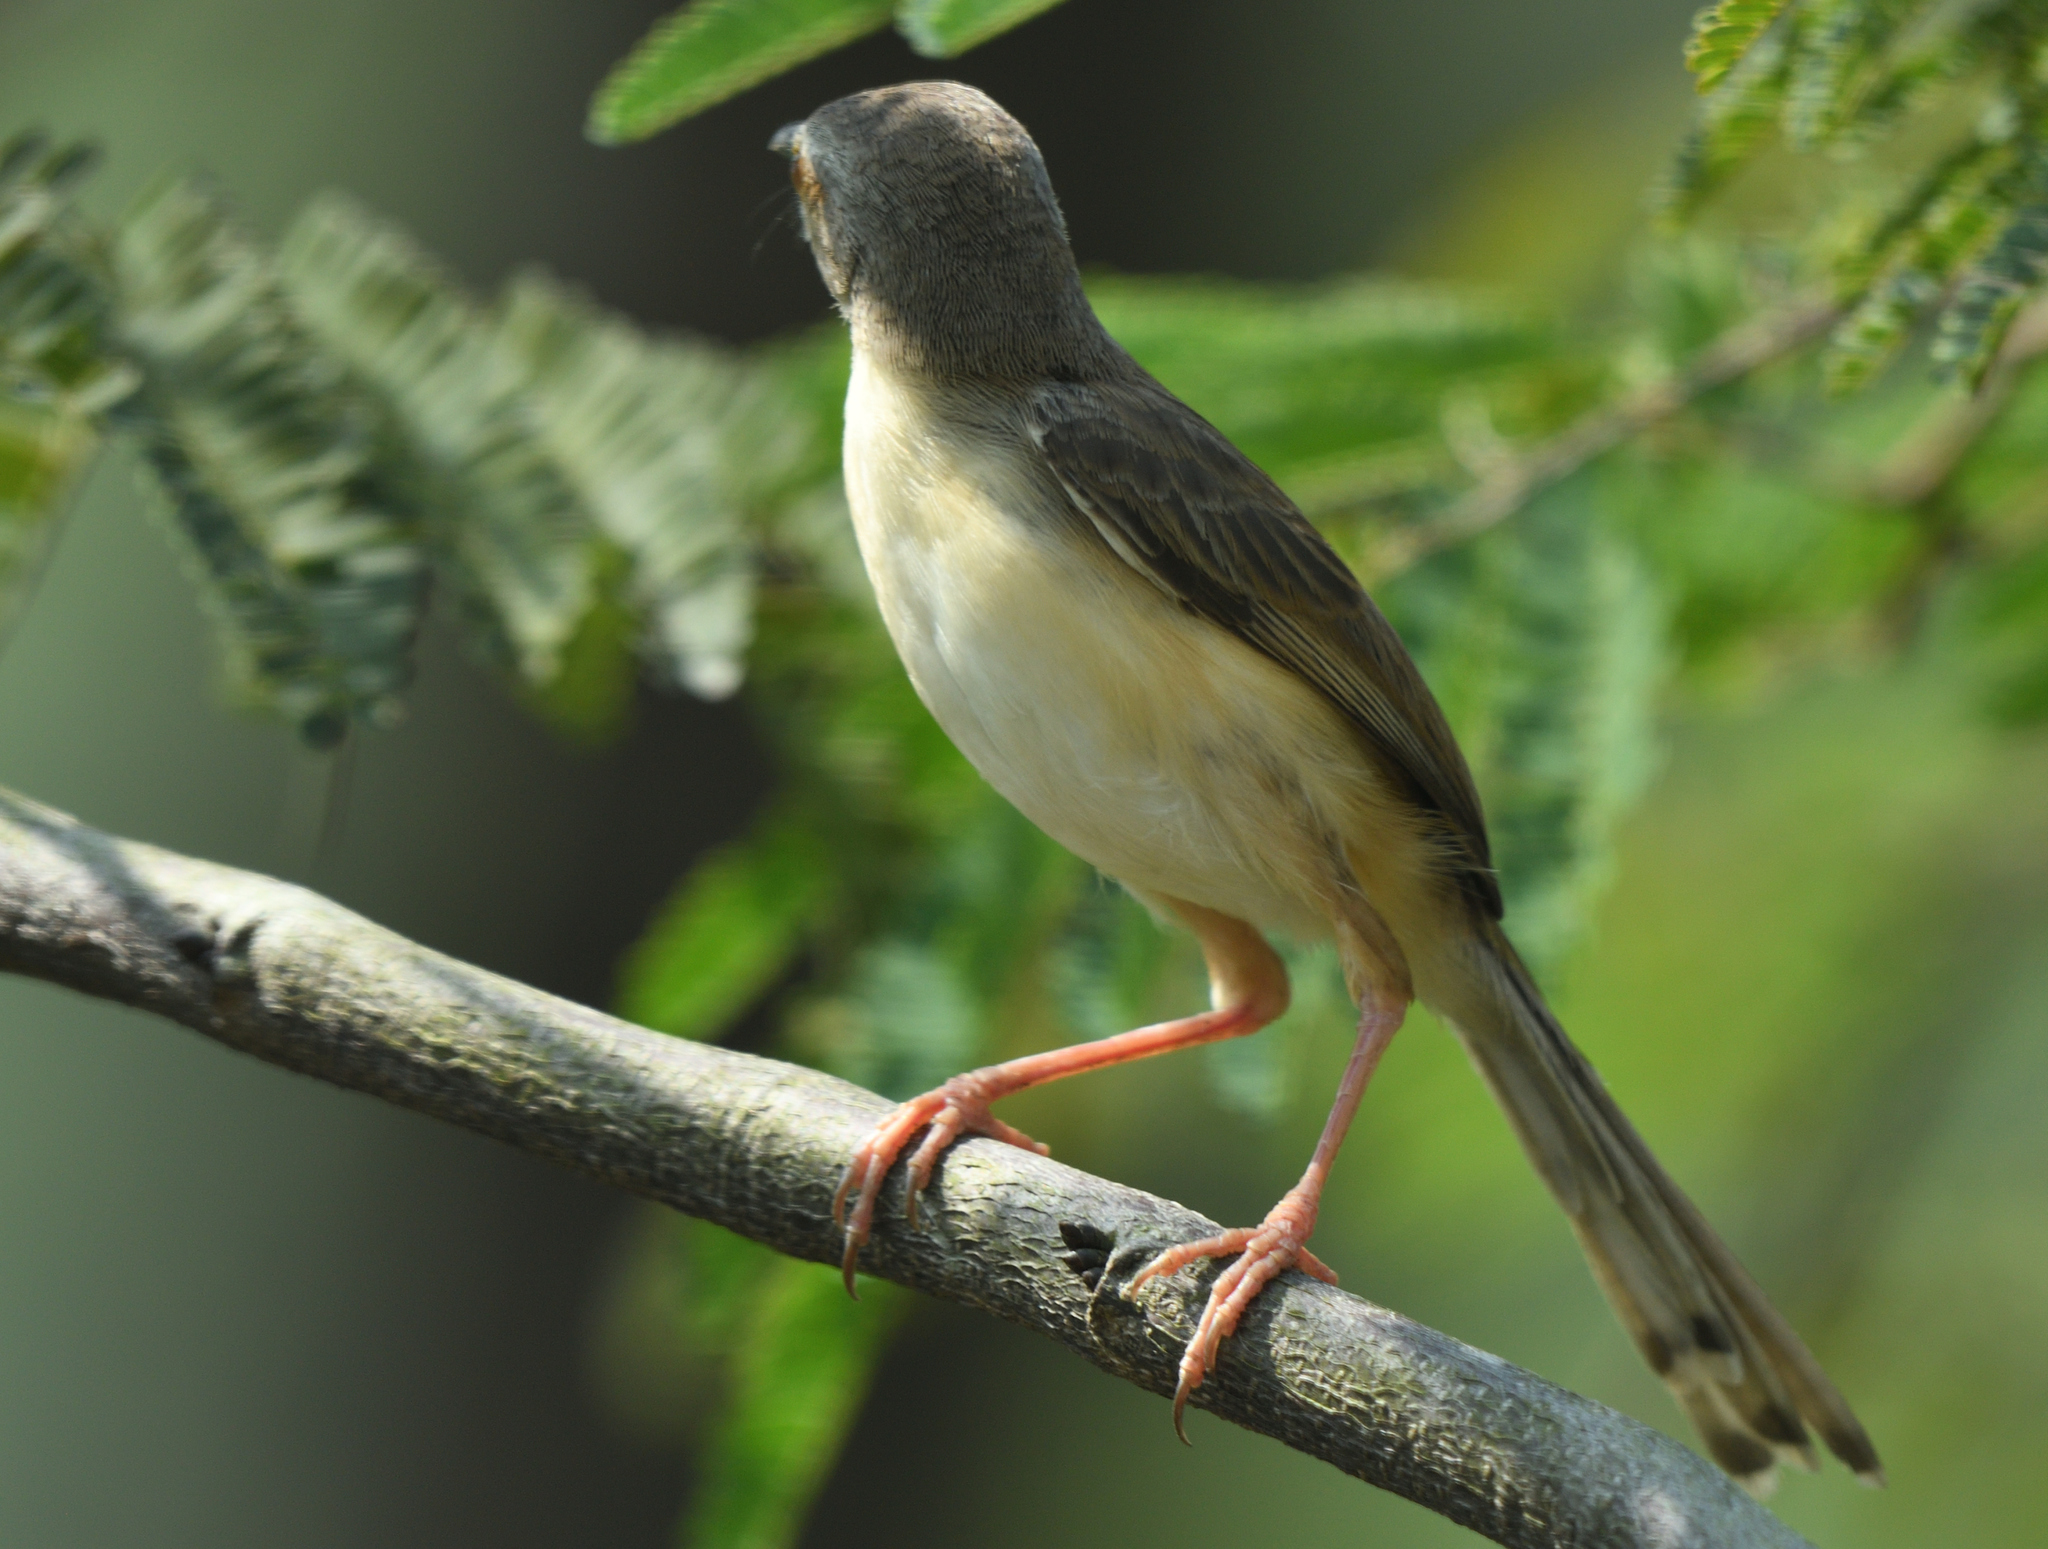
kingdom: Animalia
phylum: Chordata
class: Aves
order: Passeriformes
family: Cisticolidae
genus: Prinia
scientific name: Prinia inornata
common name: Plain prinia
